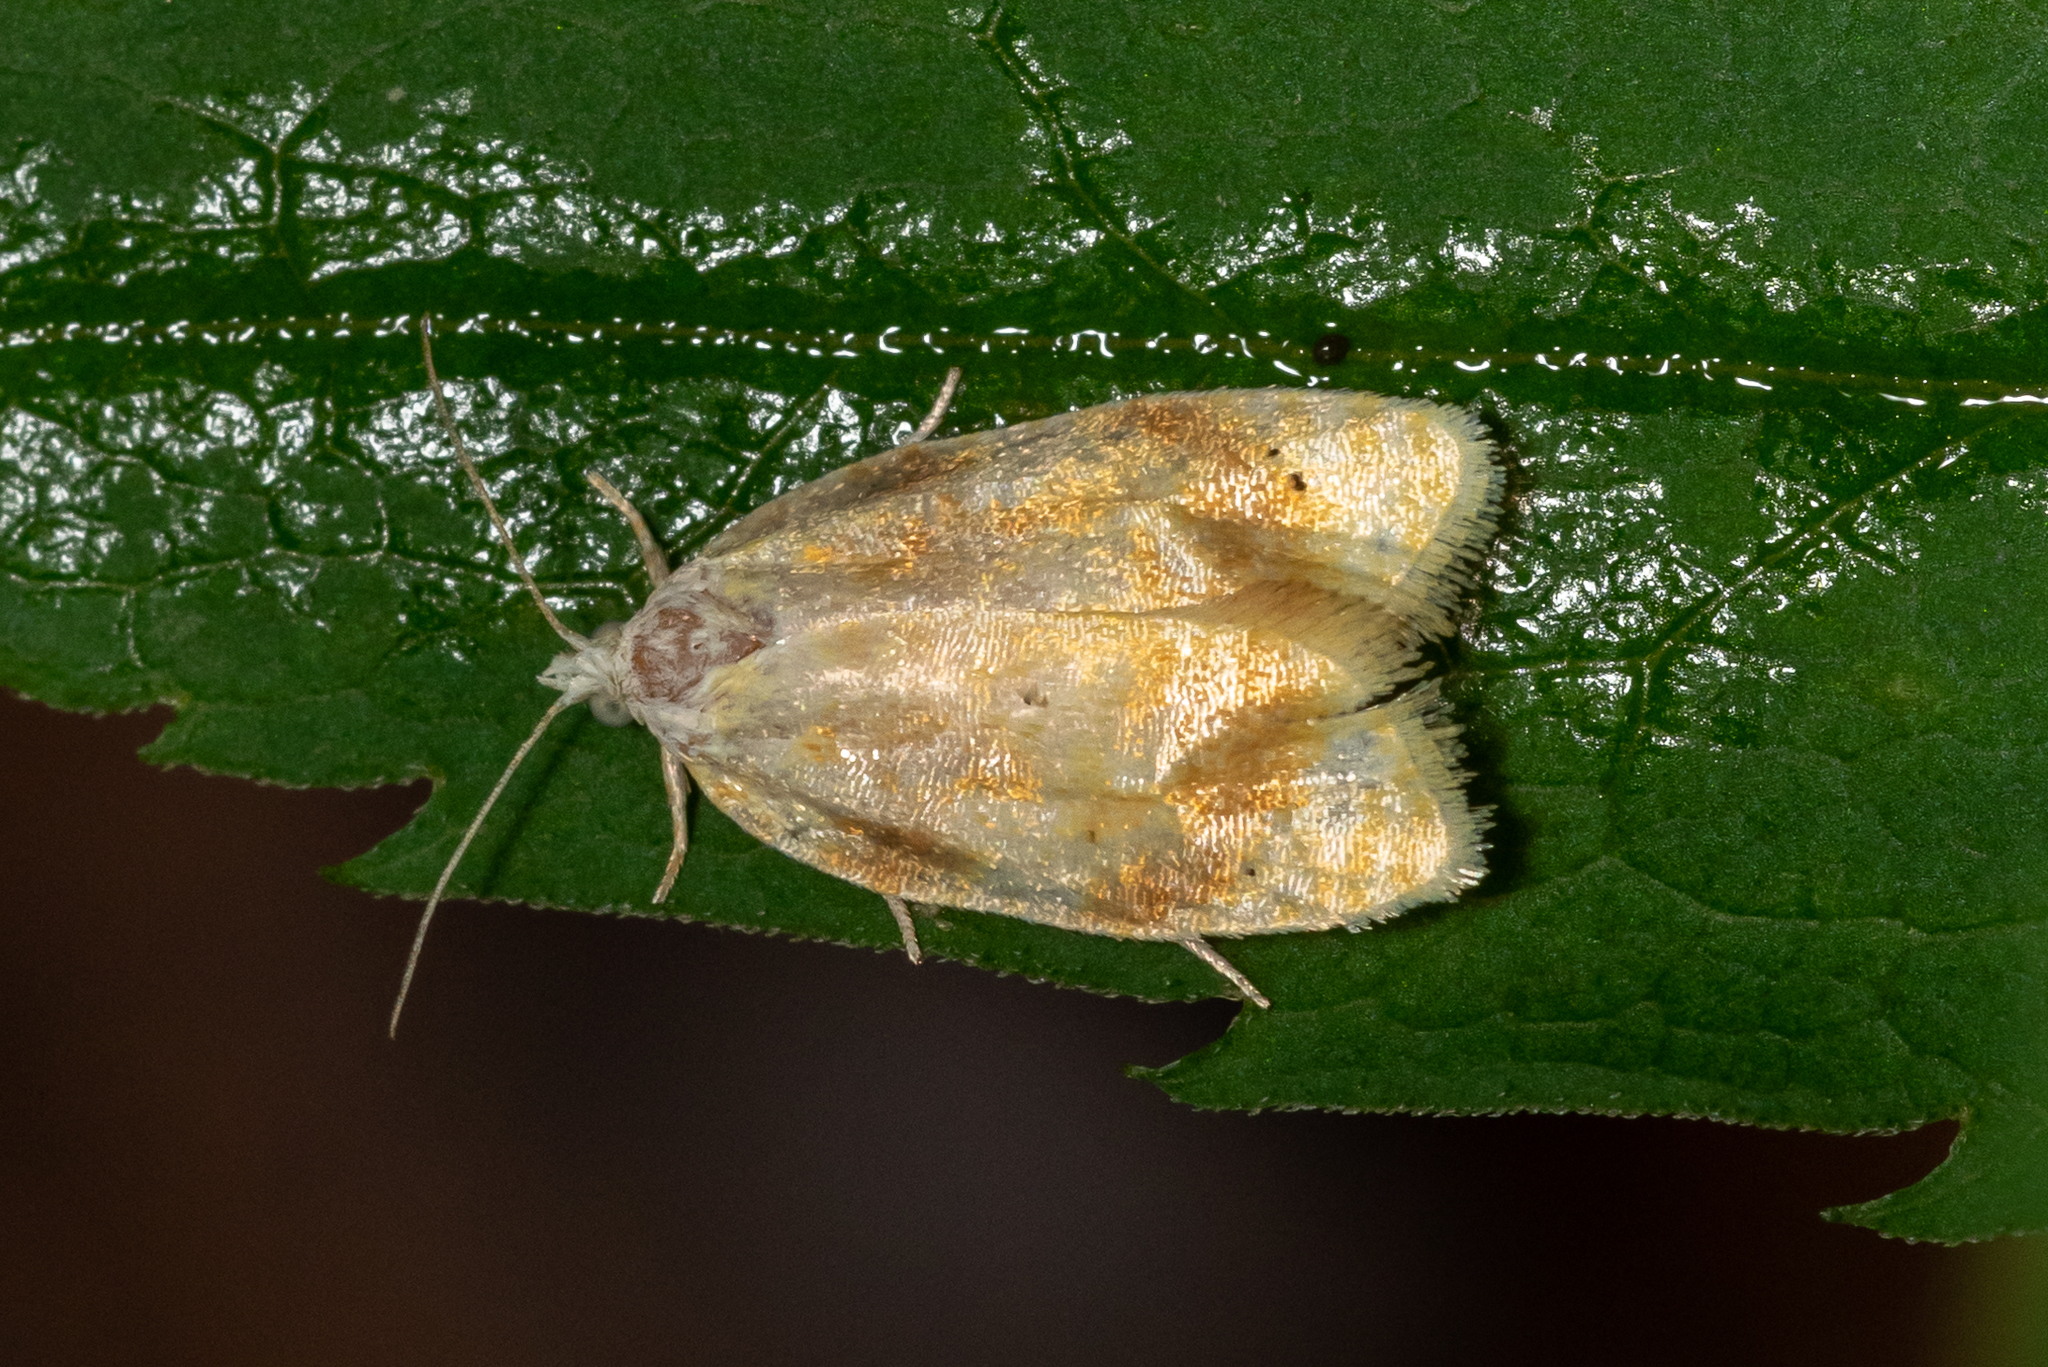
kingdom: Animalia
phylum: Arthropoda
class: Insecta
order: Lepidoptera
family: Tortricidae
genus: Acleris
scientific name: Acleris semipurpurana
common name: Oak leaftier moth
